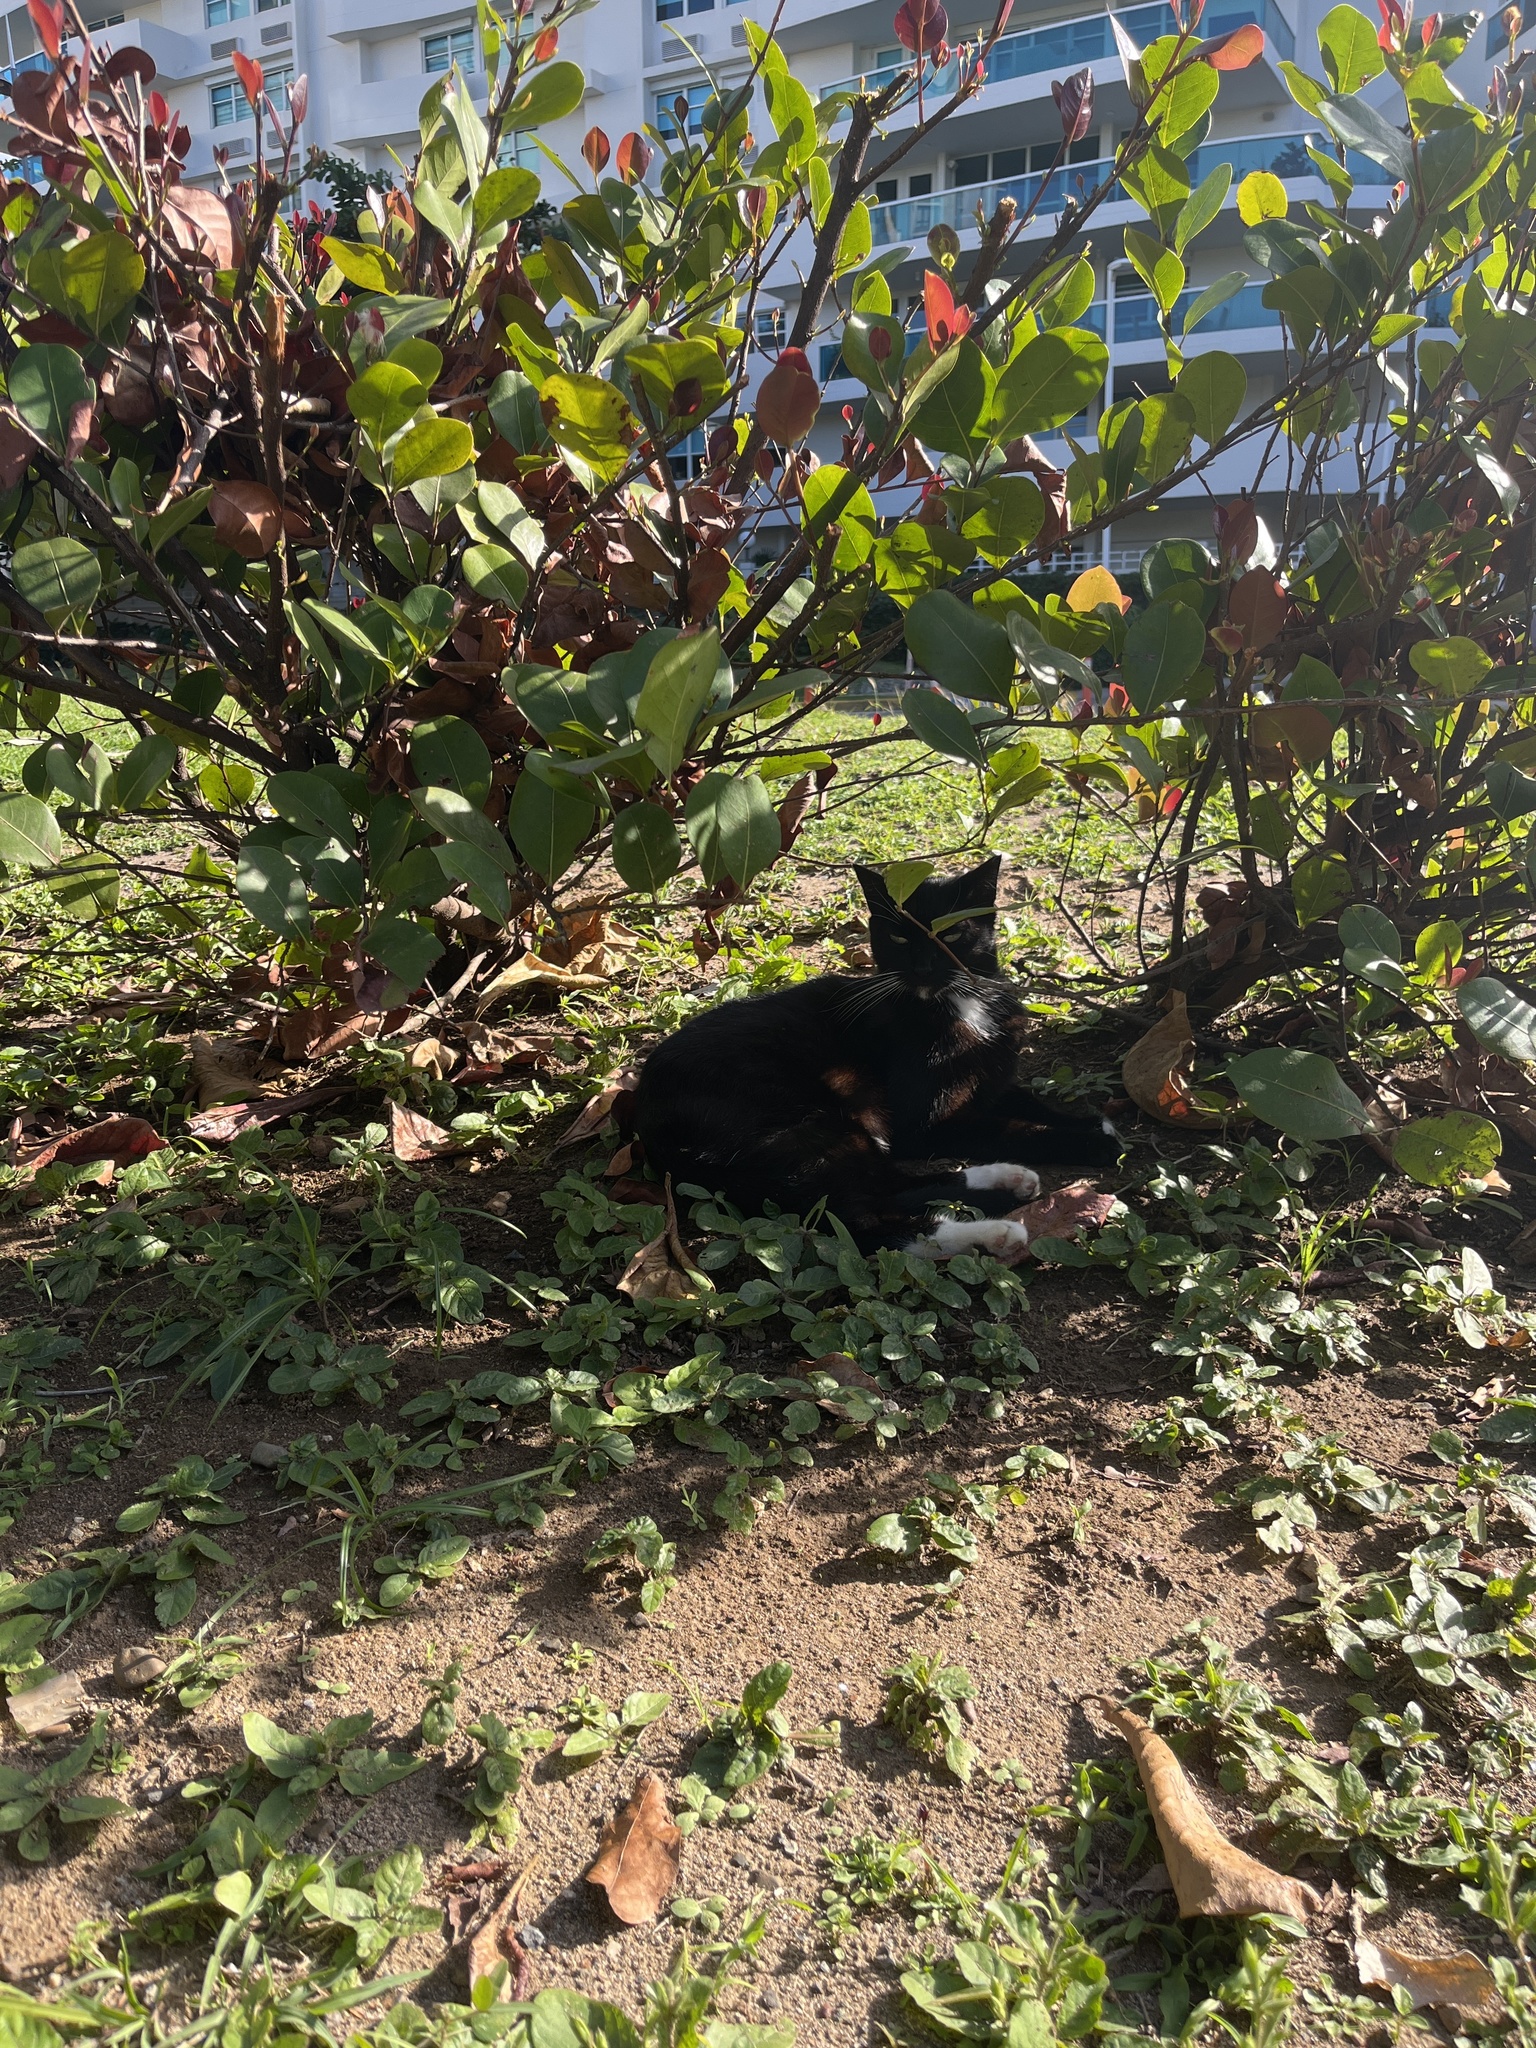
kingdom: Animalia
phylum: Chordata
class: Mammalia
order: Carnivora
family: Felidae
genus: Felis
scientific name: Felis catus
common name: Domestic cat
